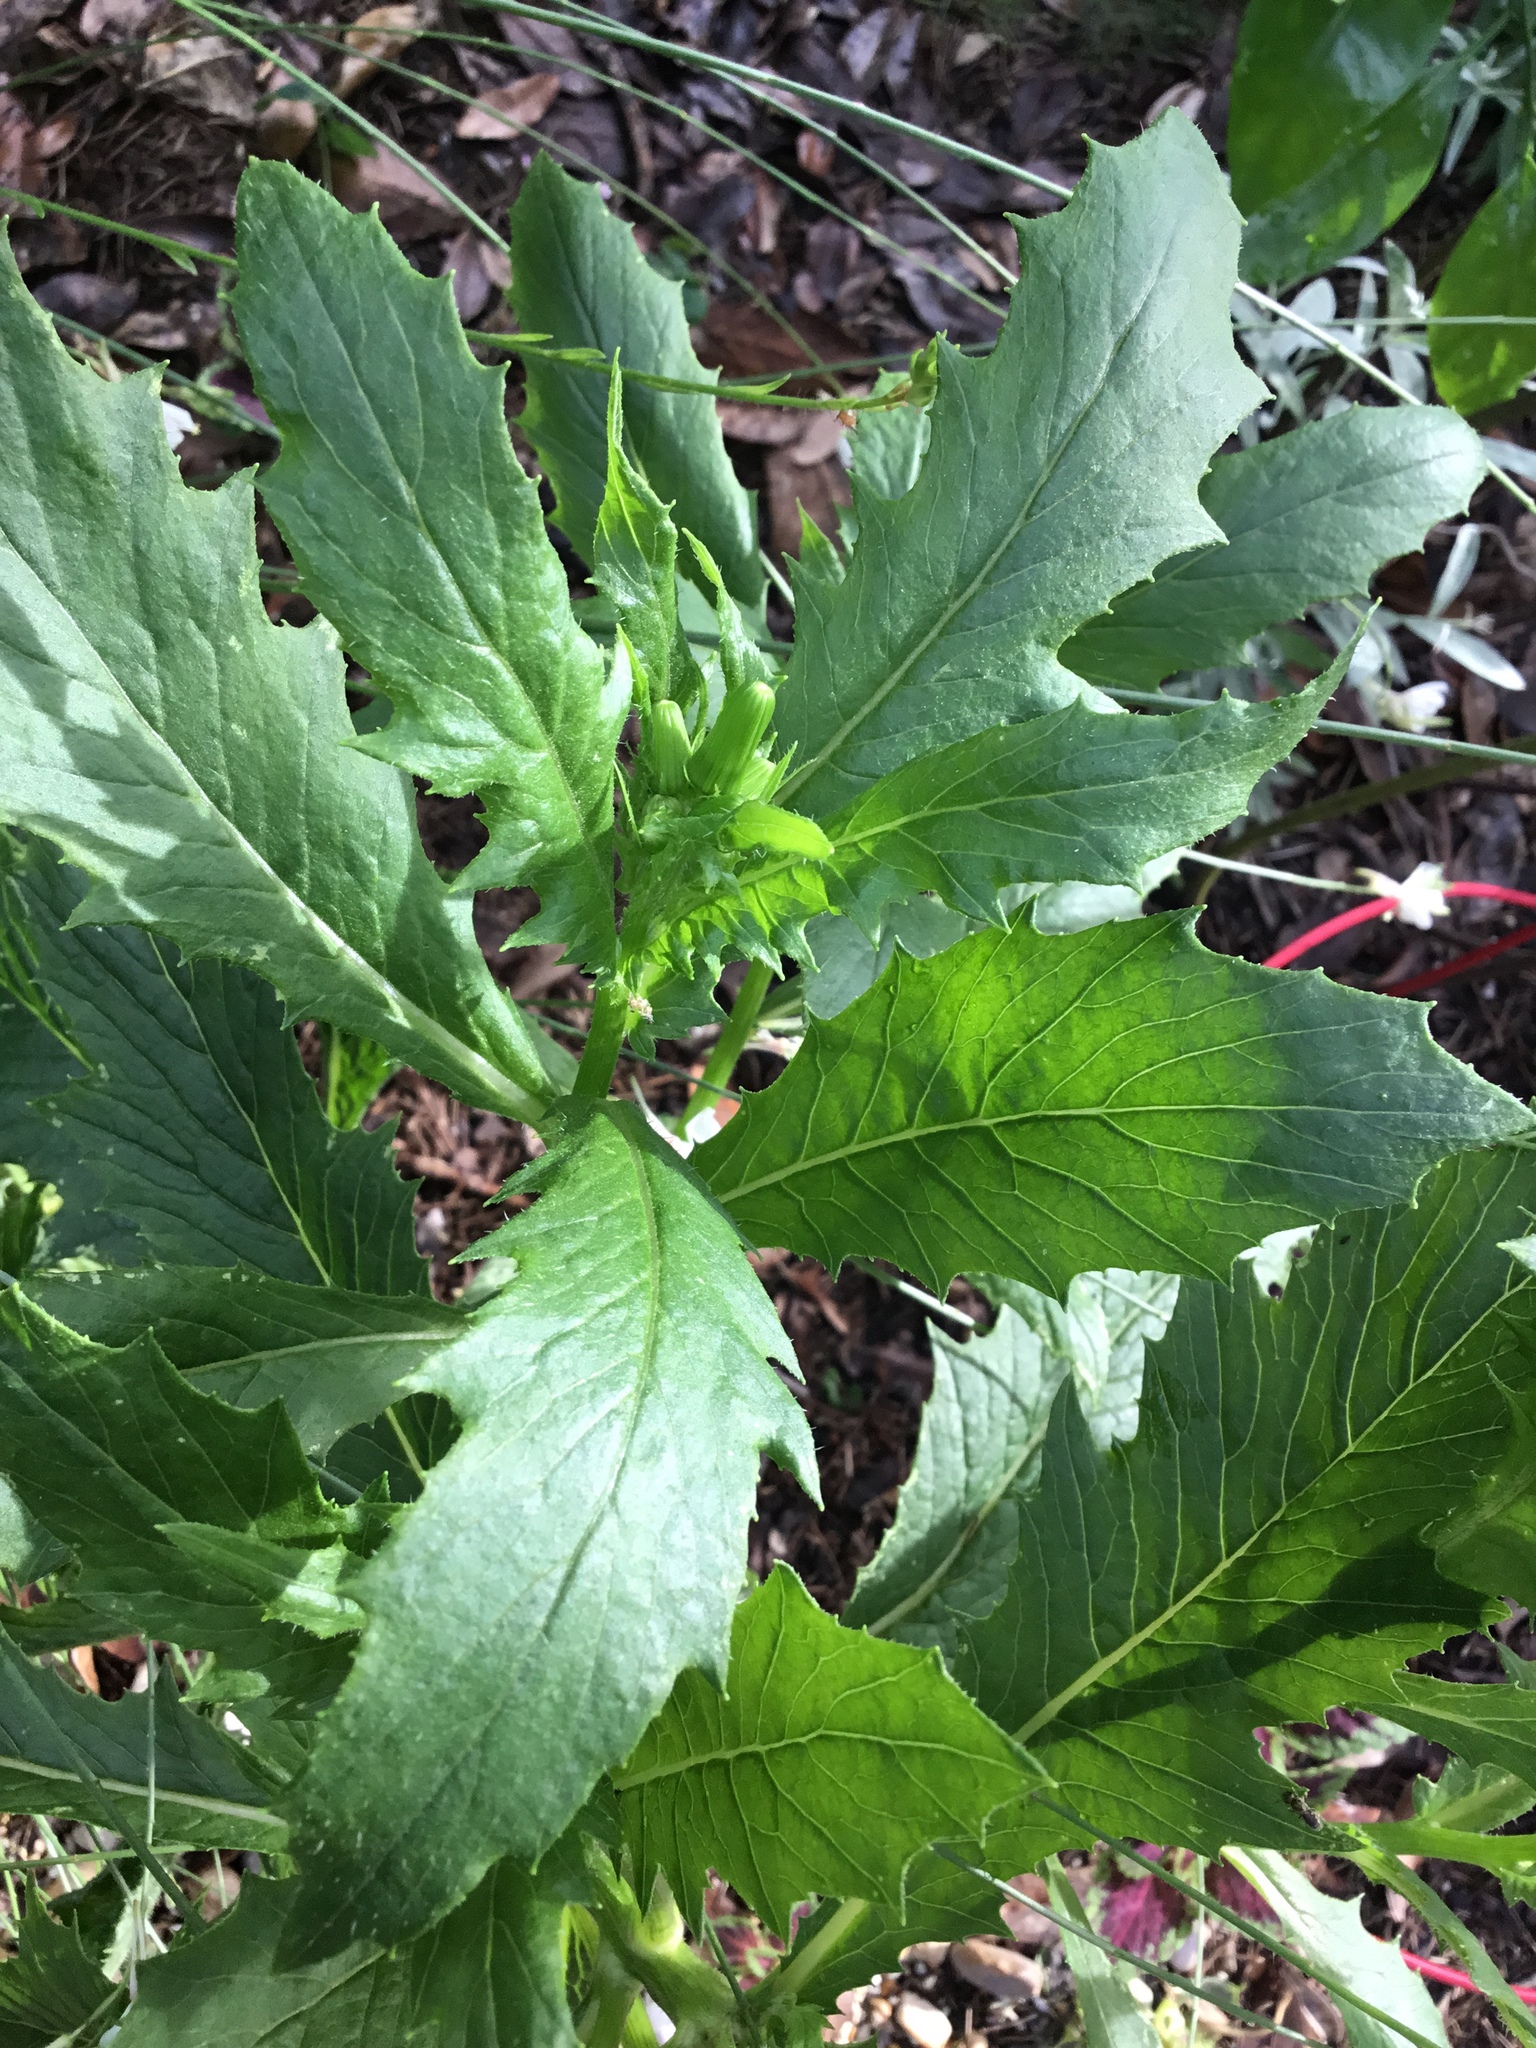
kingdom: Plantae
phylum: Tracheophyta
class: Magnoliopsida
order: Asterales
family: Asteraceae
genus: Erechtites
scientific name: Erechtites hieraciifolius
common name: American burnweed
